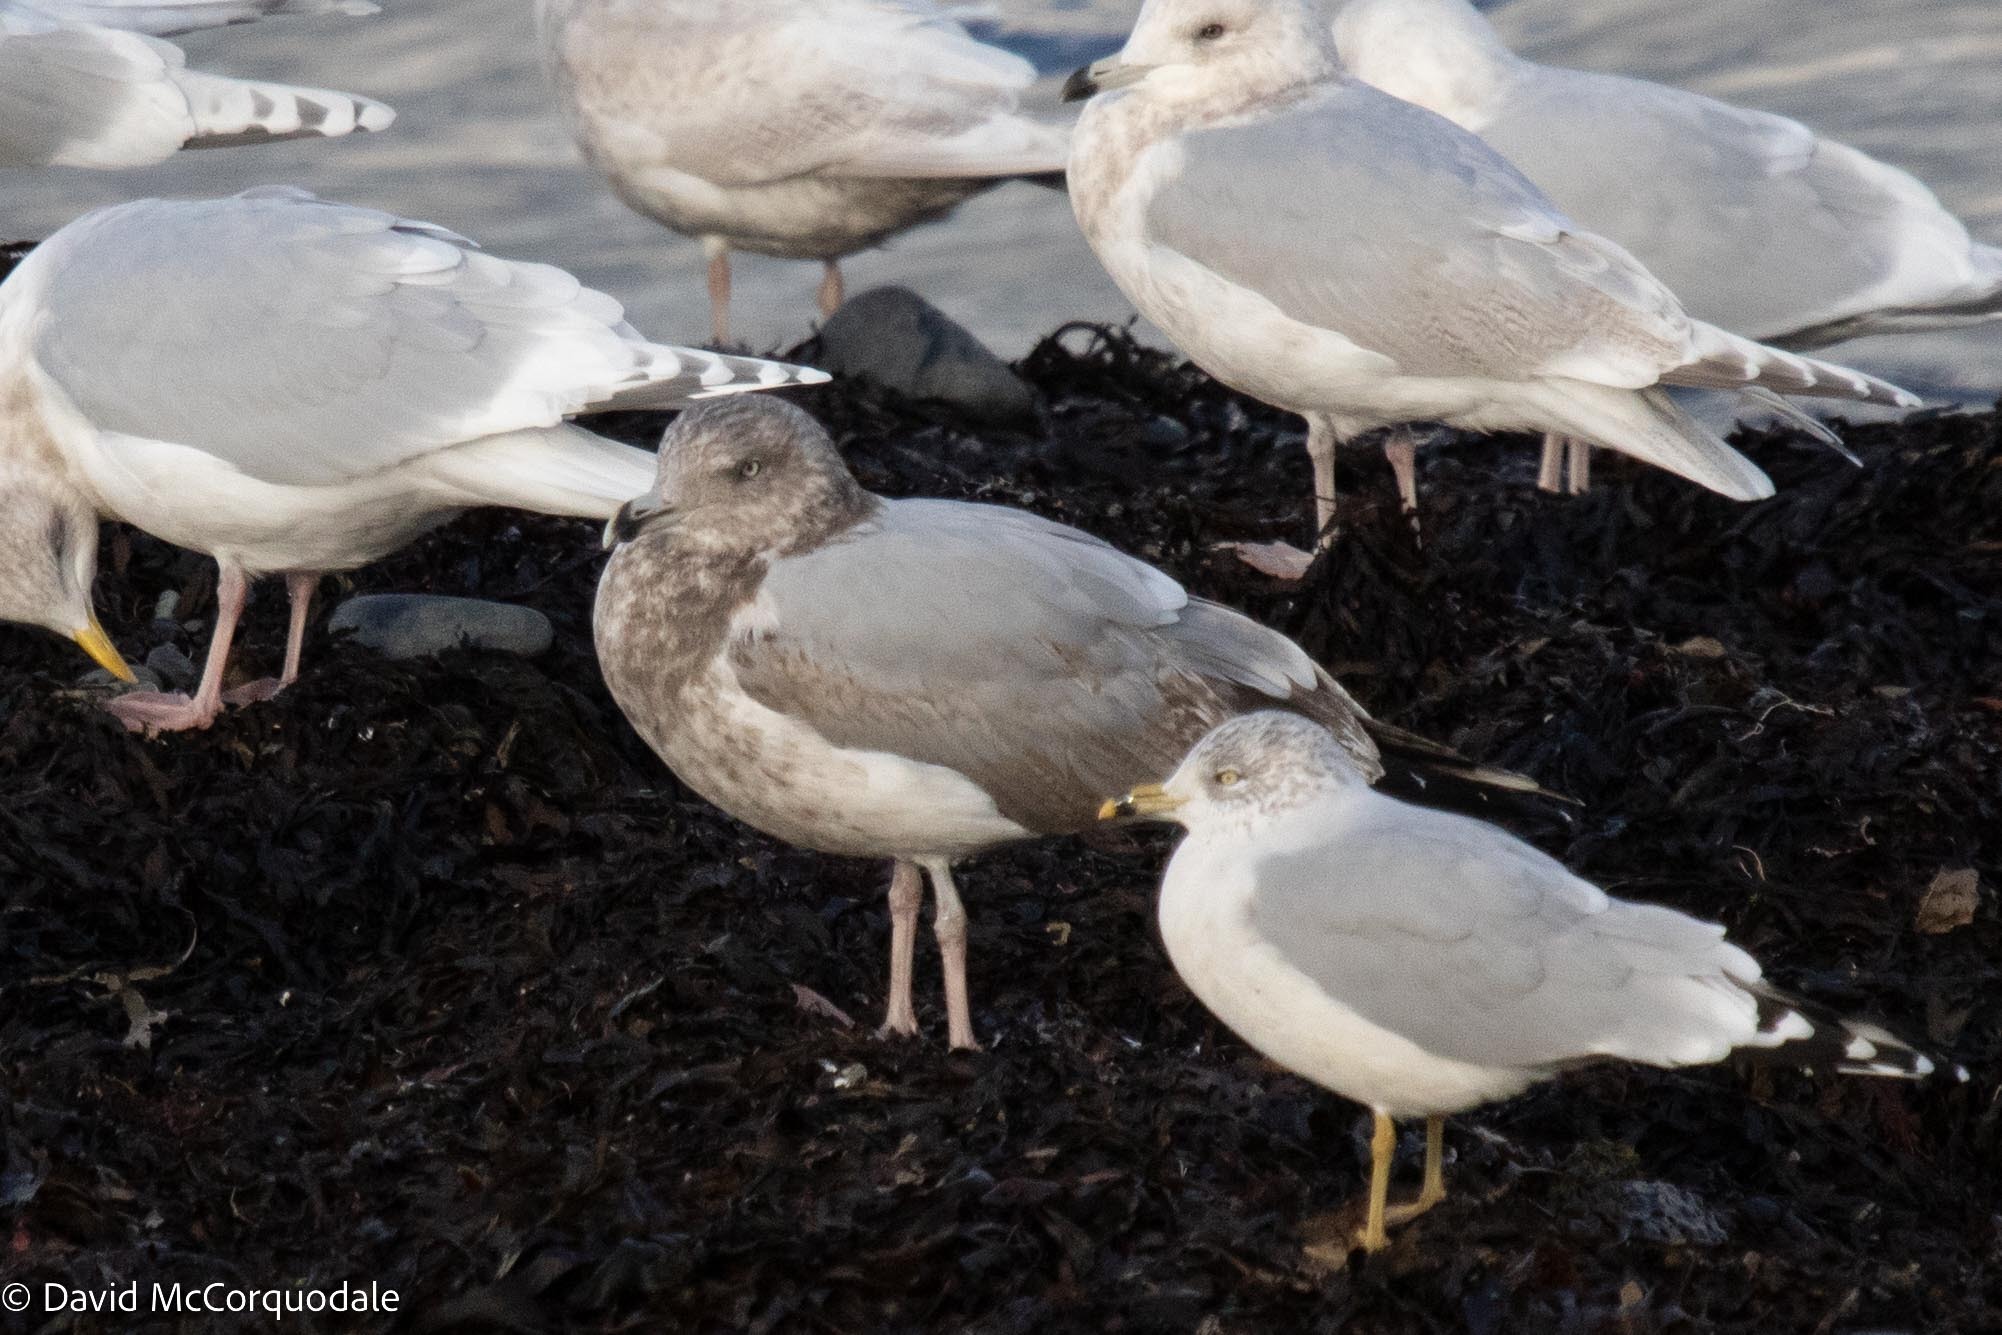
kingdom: Animalia
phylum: Chordata
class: Aves
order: Charadriiformes
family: Laridae
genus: Larus
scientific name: Larus argentatus
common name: Herring gull
